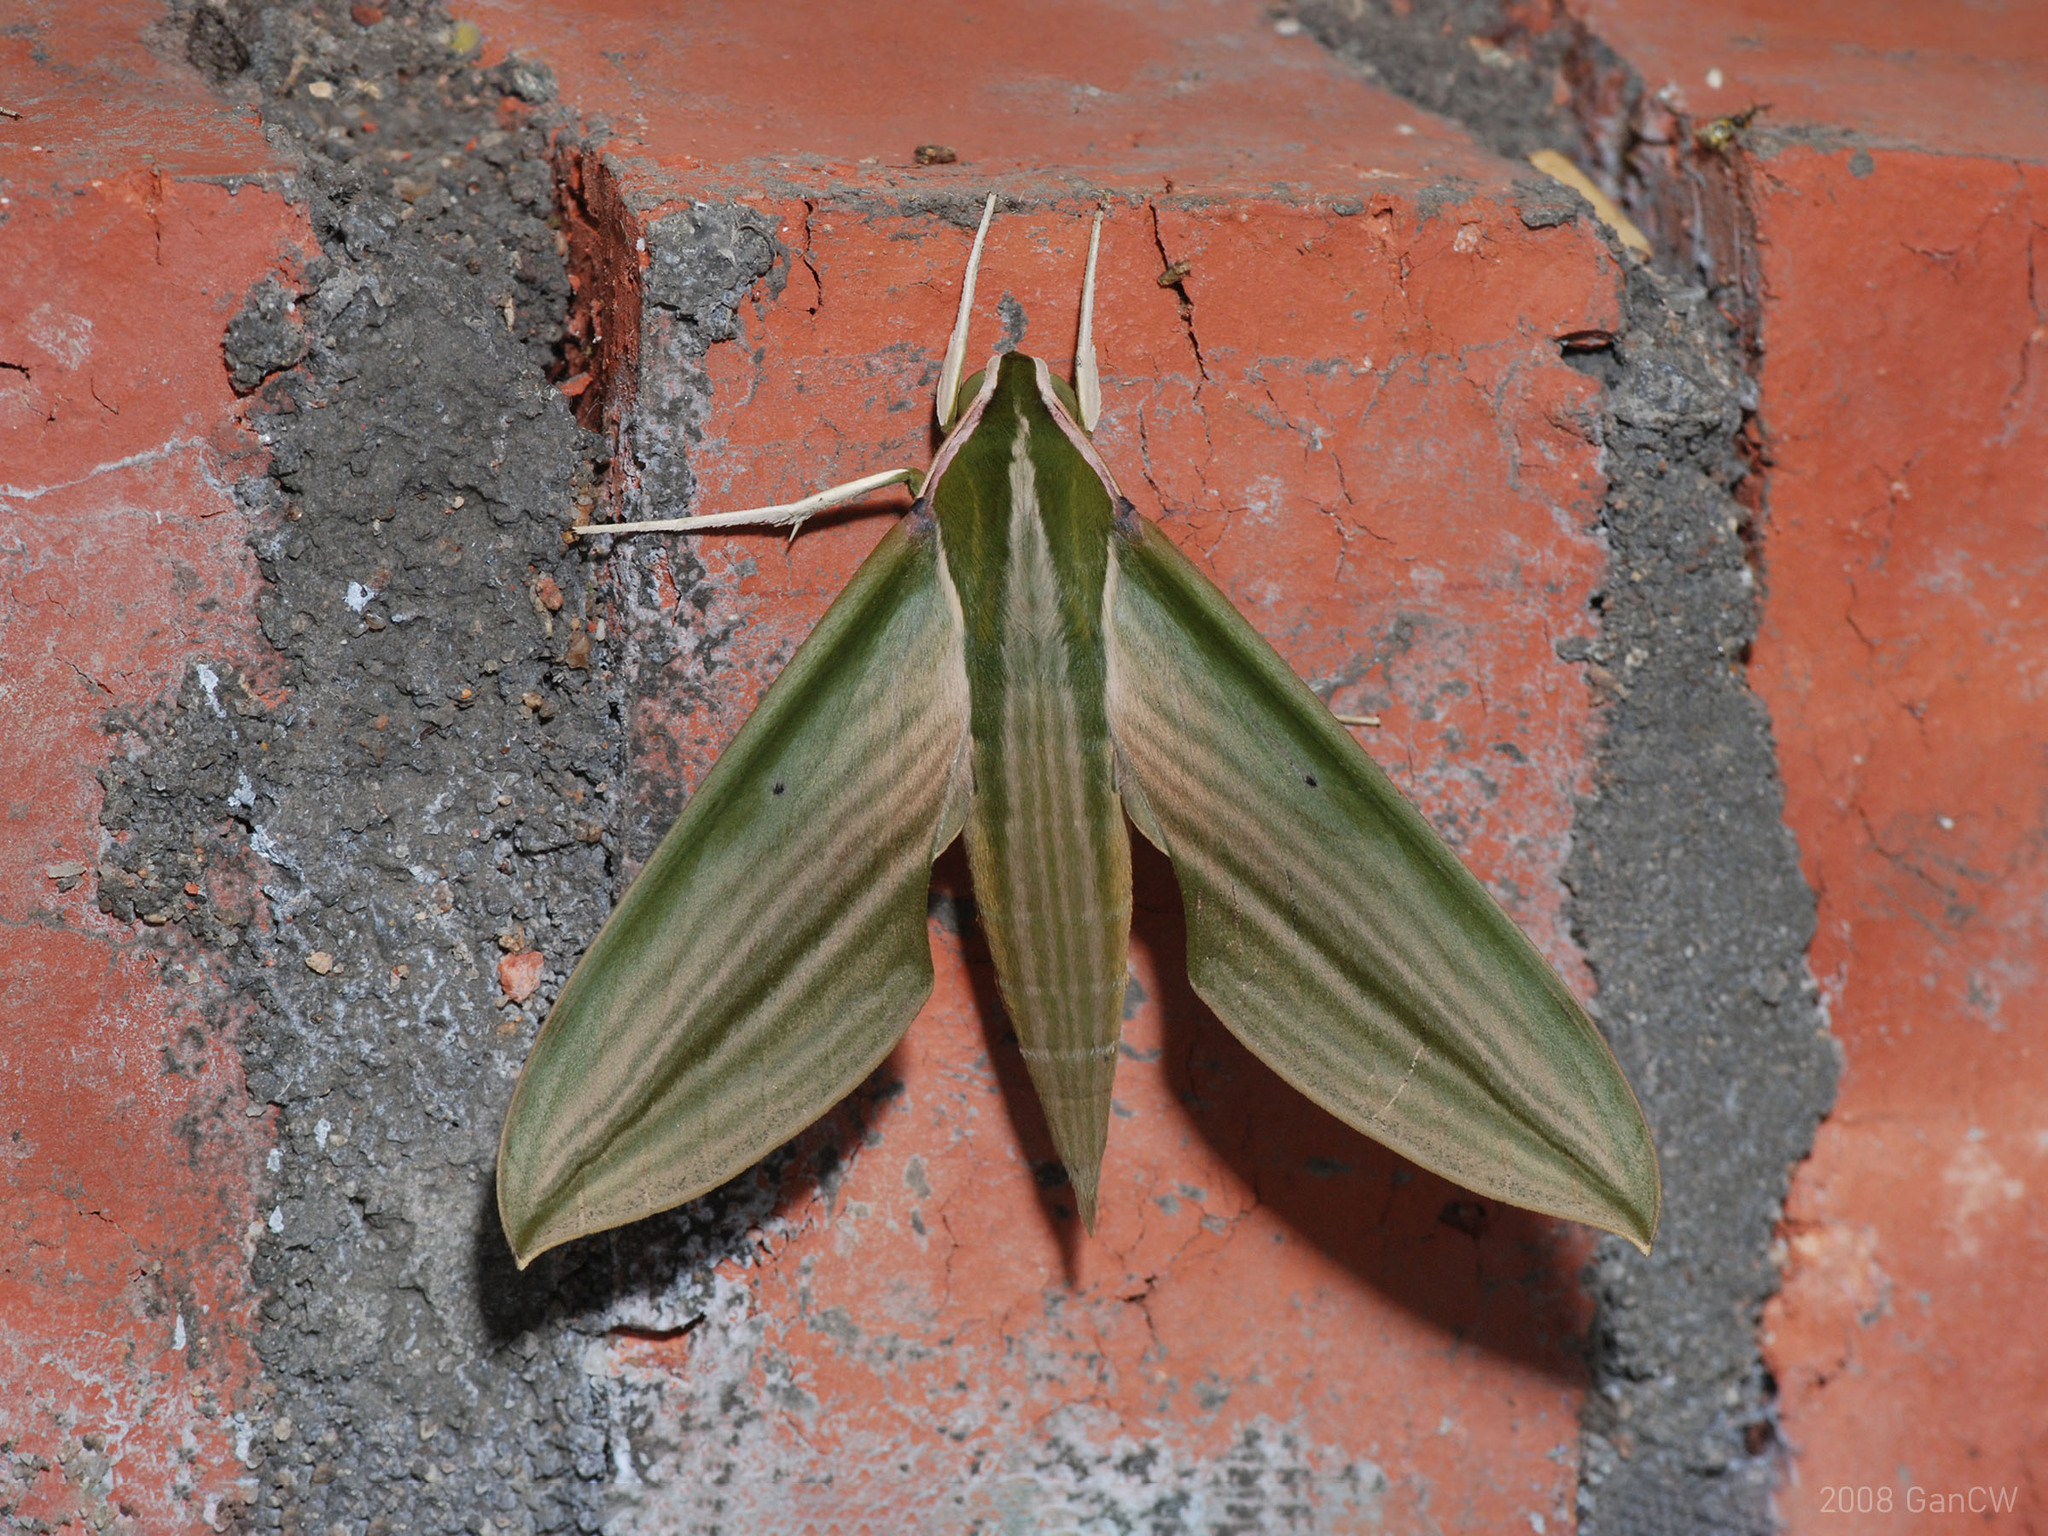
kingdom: Animalia
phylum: Arthropoda
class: Insecta
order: Lepidoptera
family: Sphingidae
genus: Cechetra
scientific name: Cechetra lineosa
